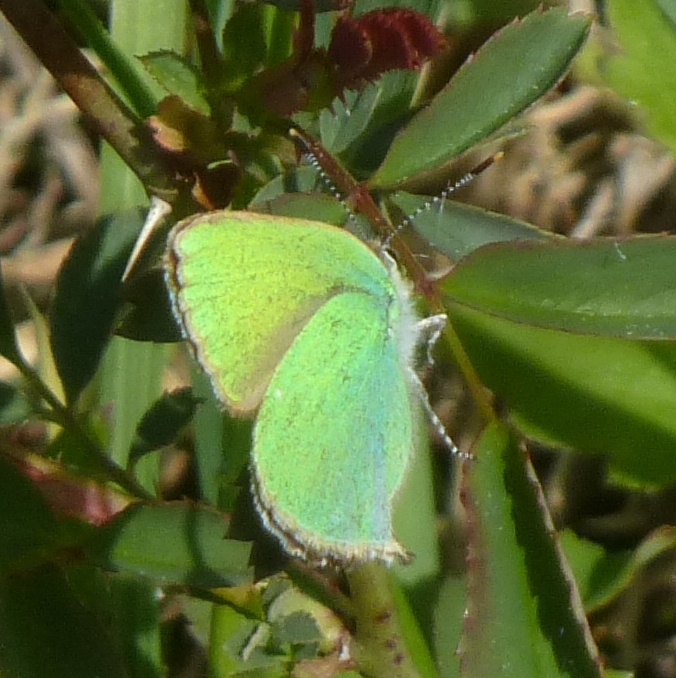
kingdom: Animalia
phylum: Arthropoda
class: Insecta
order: Lepidoptera
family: Lycaenidae
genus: Callophrys
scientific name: Callophrys rubi
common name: Green hairstreak
